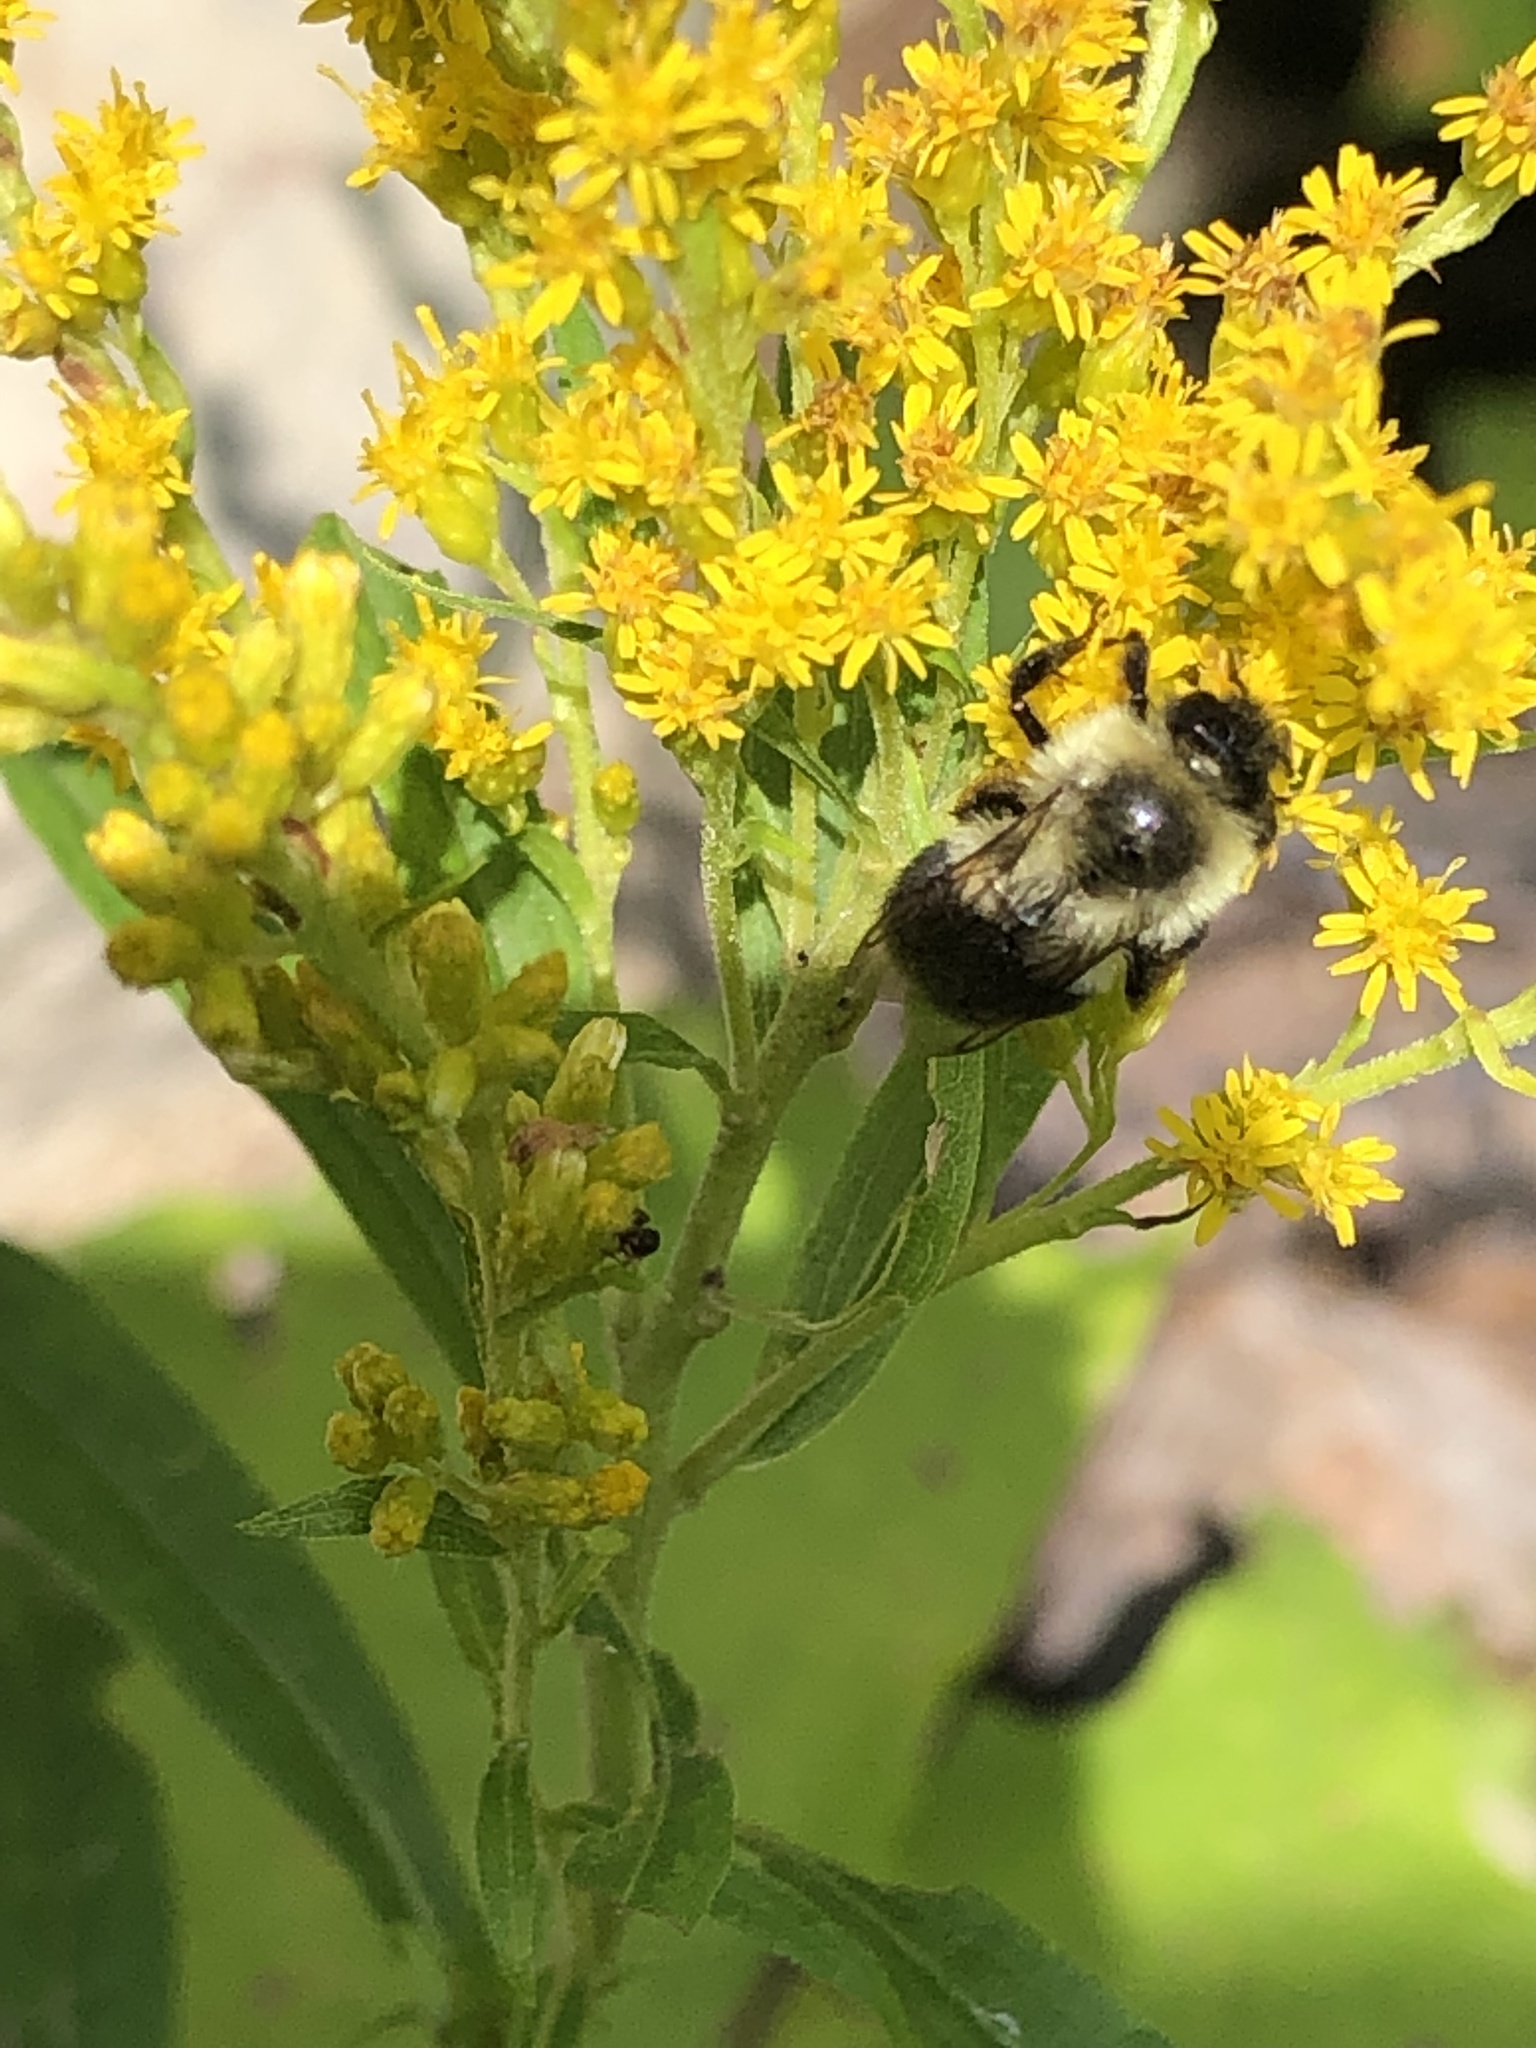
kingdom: Animalia
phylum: Arthropoda
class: Insecta
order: Hymenoptera
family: Apidae
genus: Bombus
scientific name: Bombus impatiens
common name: Common eastern bumble bee
